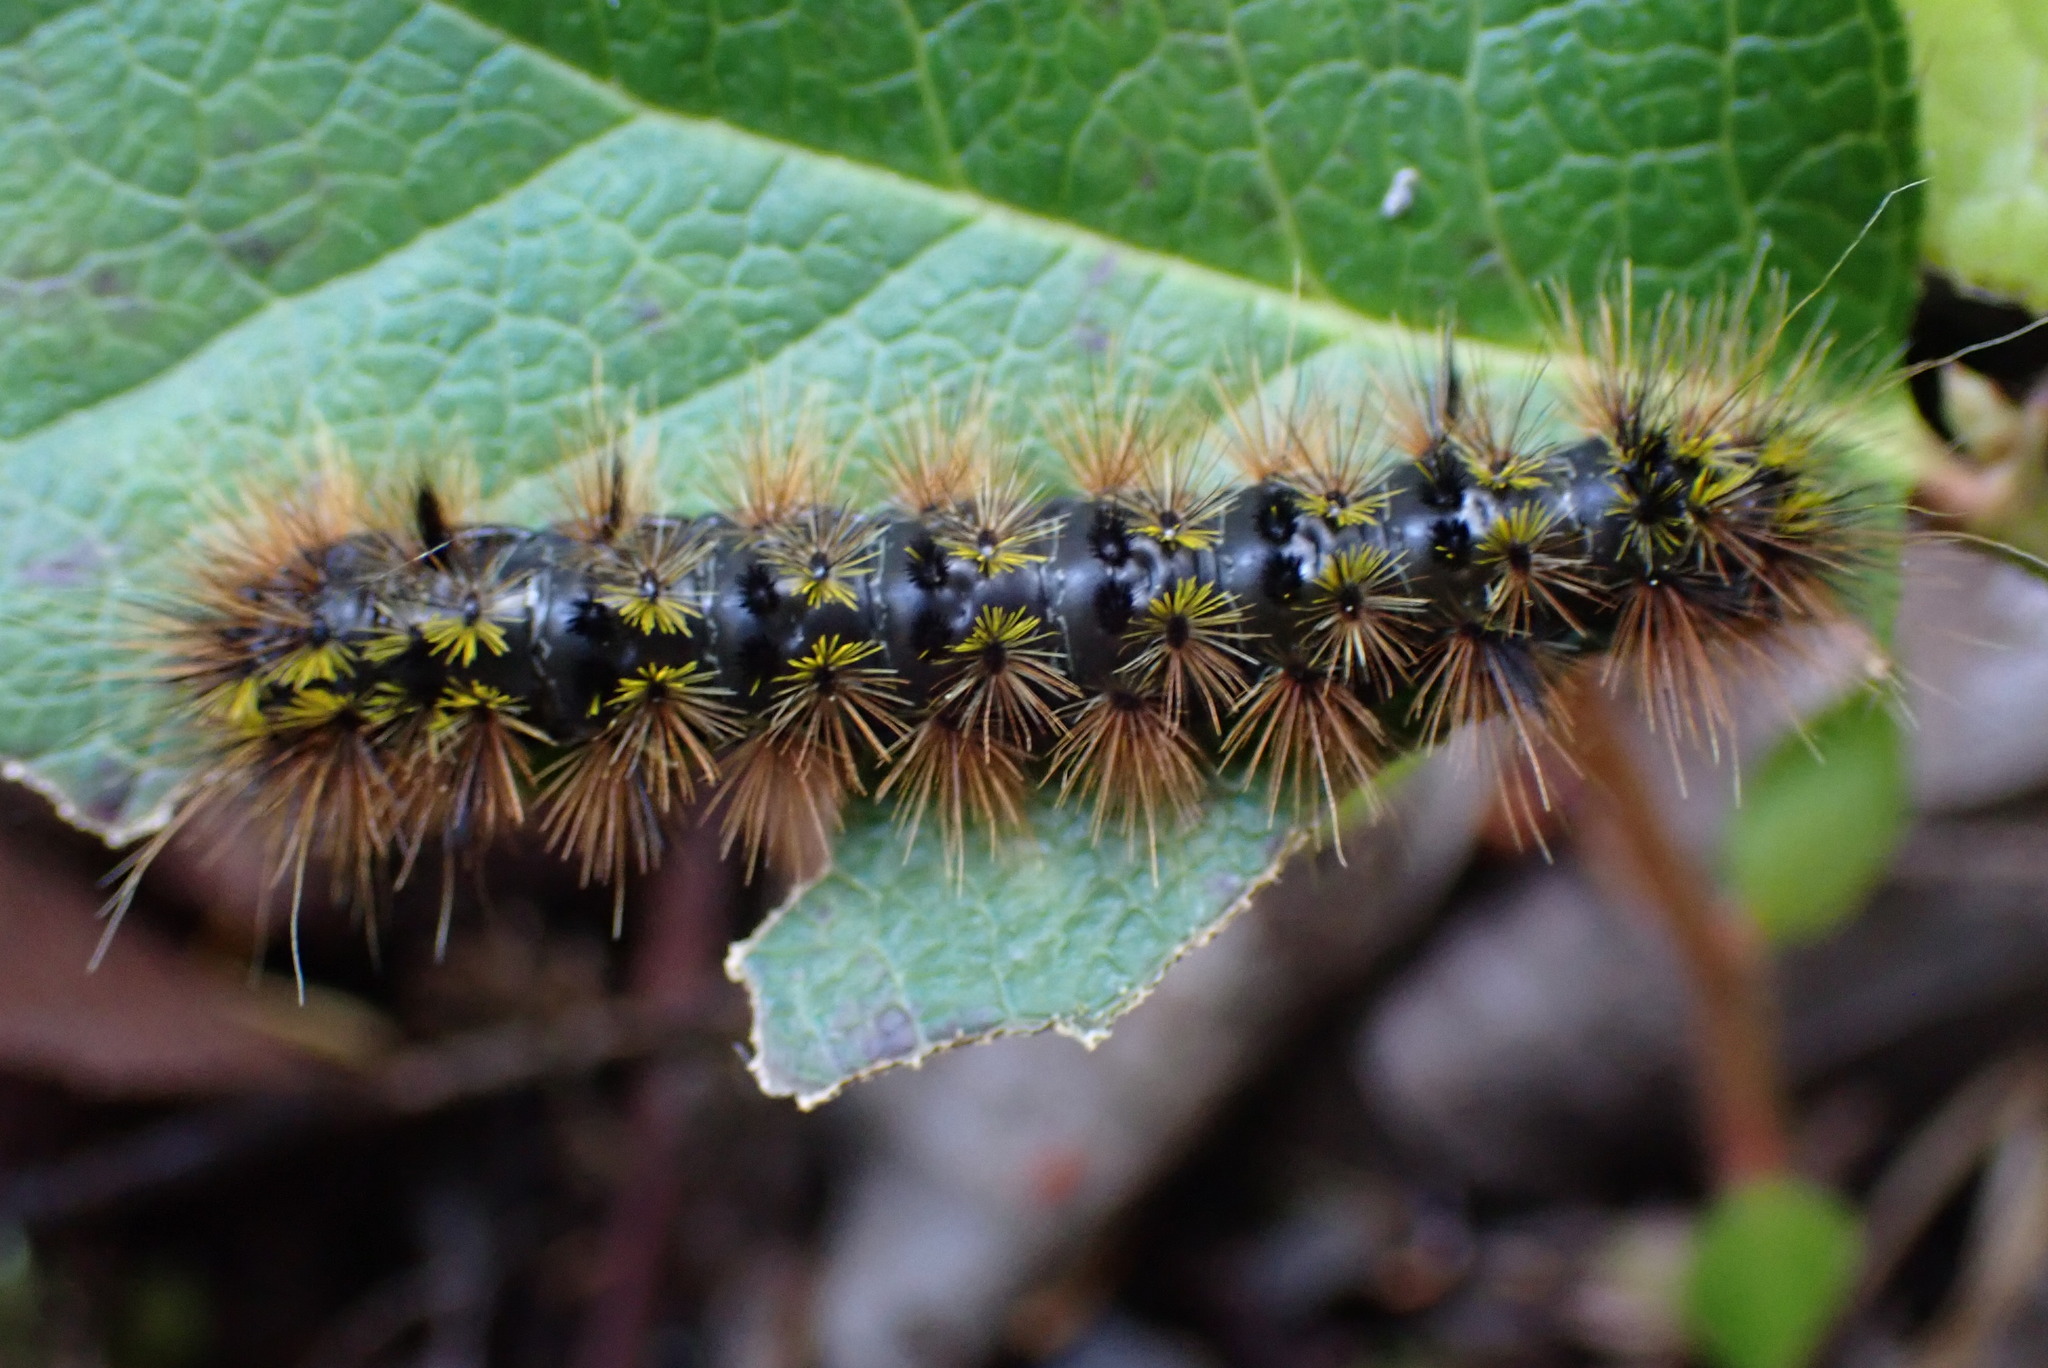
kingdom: Animalia
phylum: Arthropoda
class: Insecta
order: Lepidoptera
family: Erebidae
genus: Lophocampa
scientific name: Lophocampa argentata
